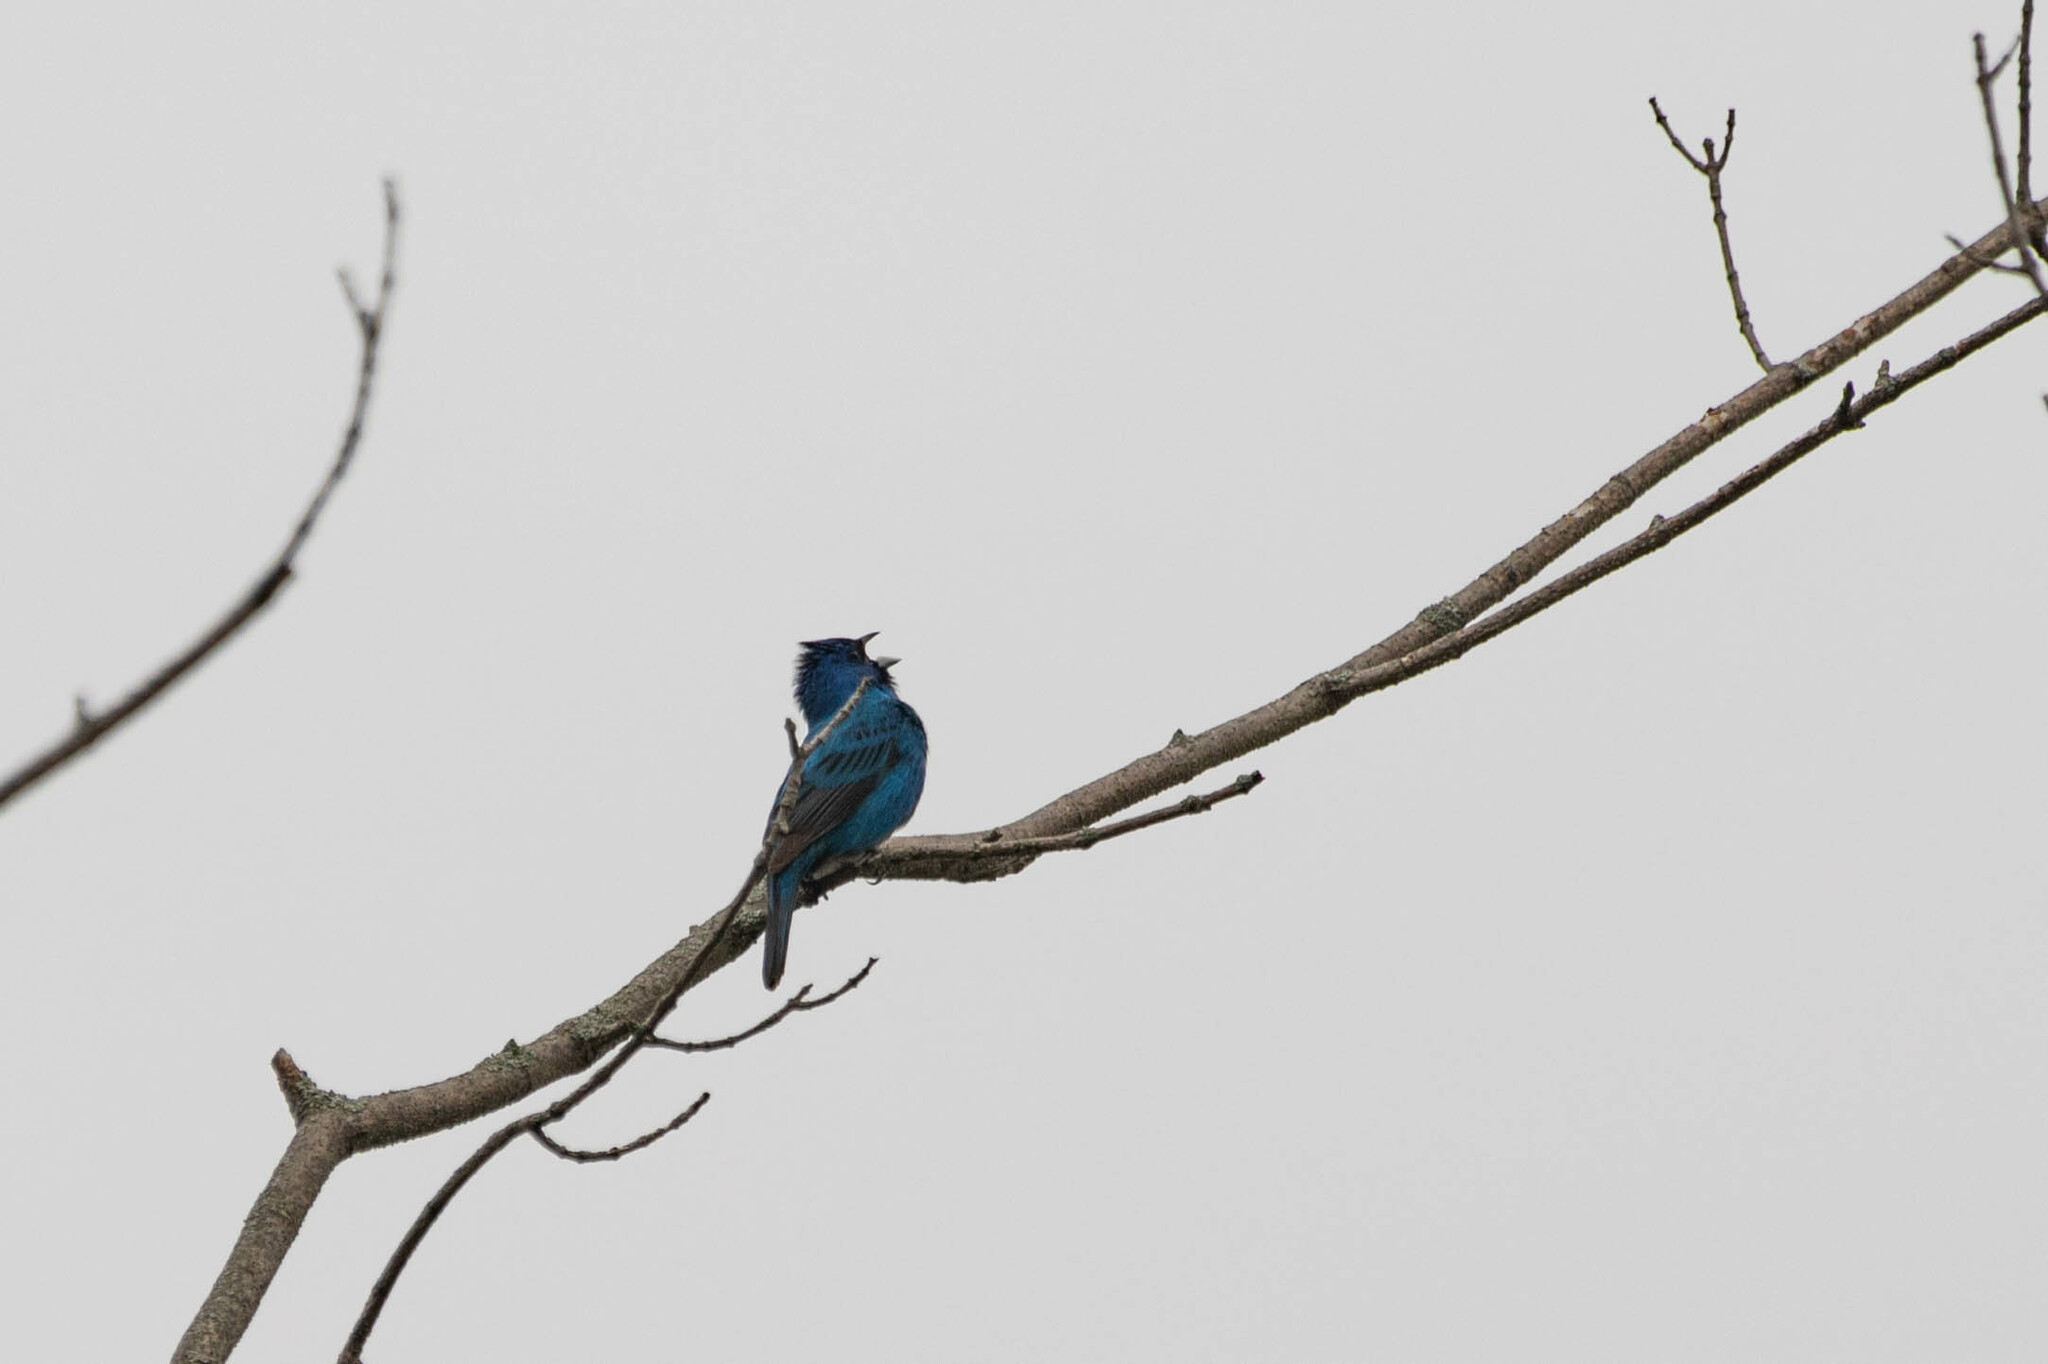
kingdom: Animalia
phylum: Chordata
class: Aves
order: Passeriformes
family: Cardinalidae
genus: Passerina
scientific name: Passerina cyanea
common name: Indigo bunting
